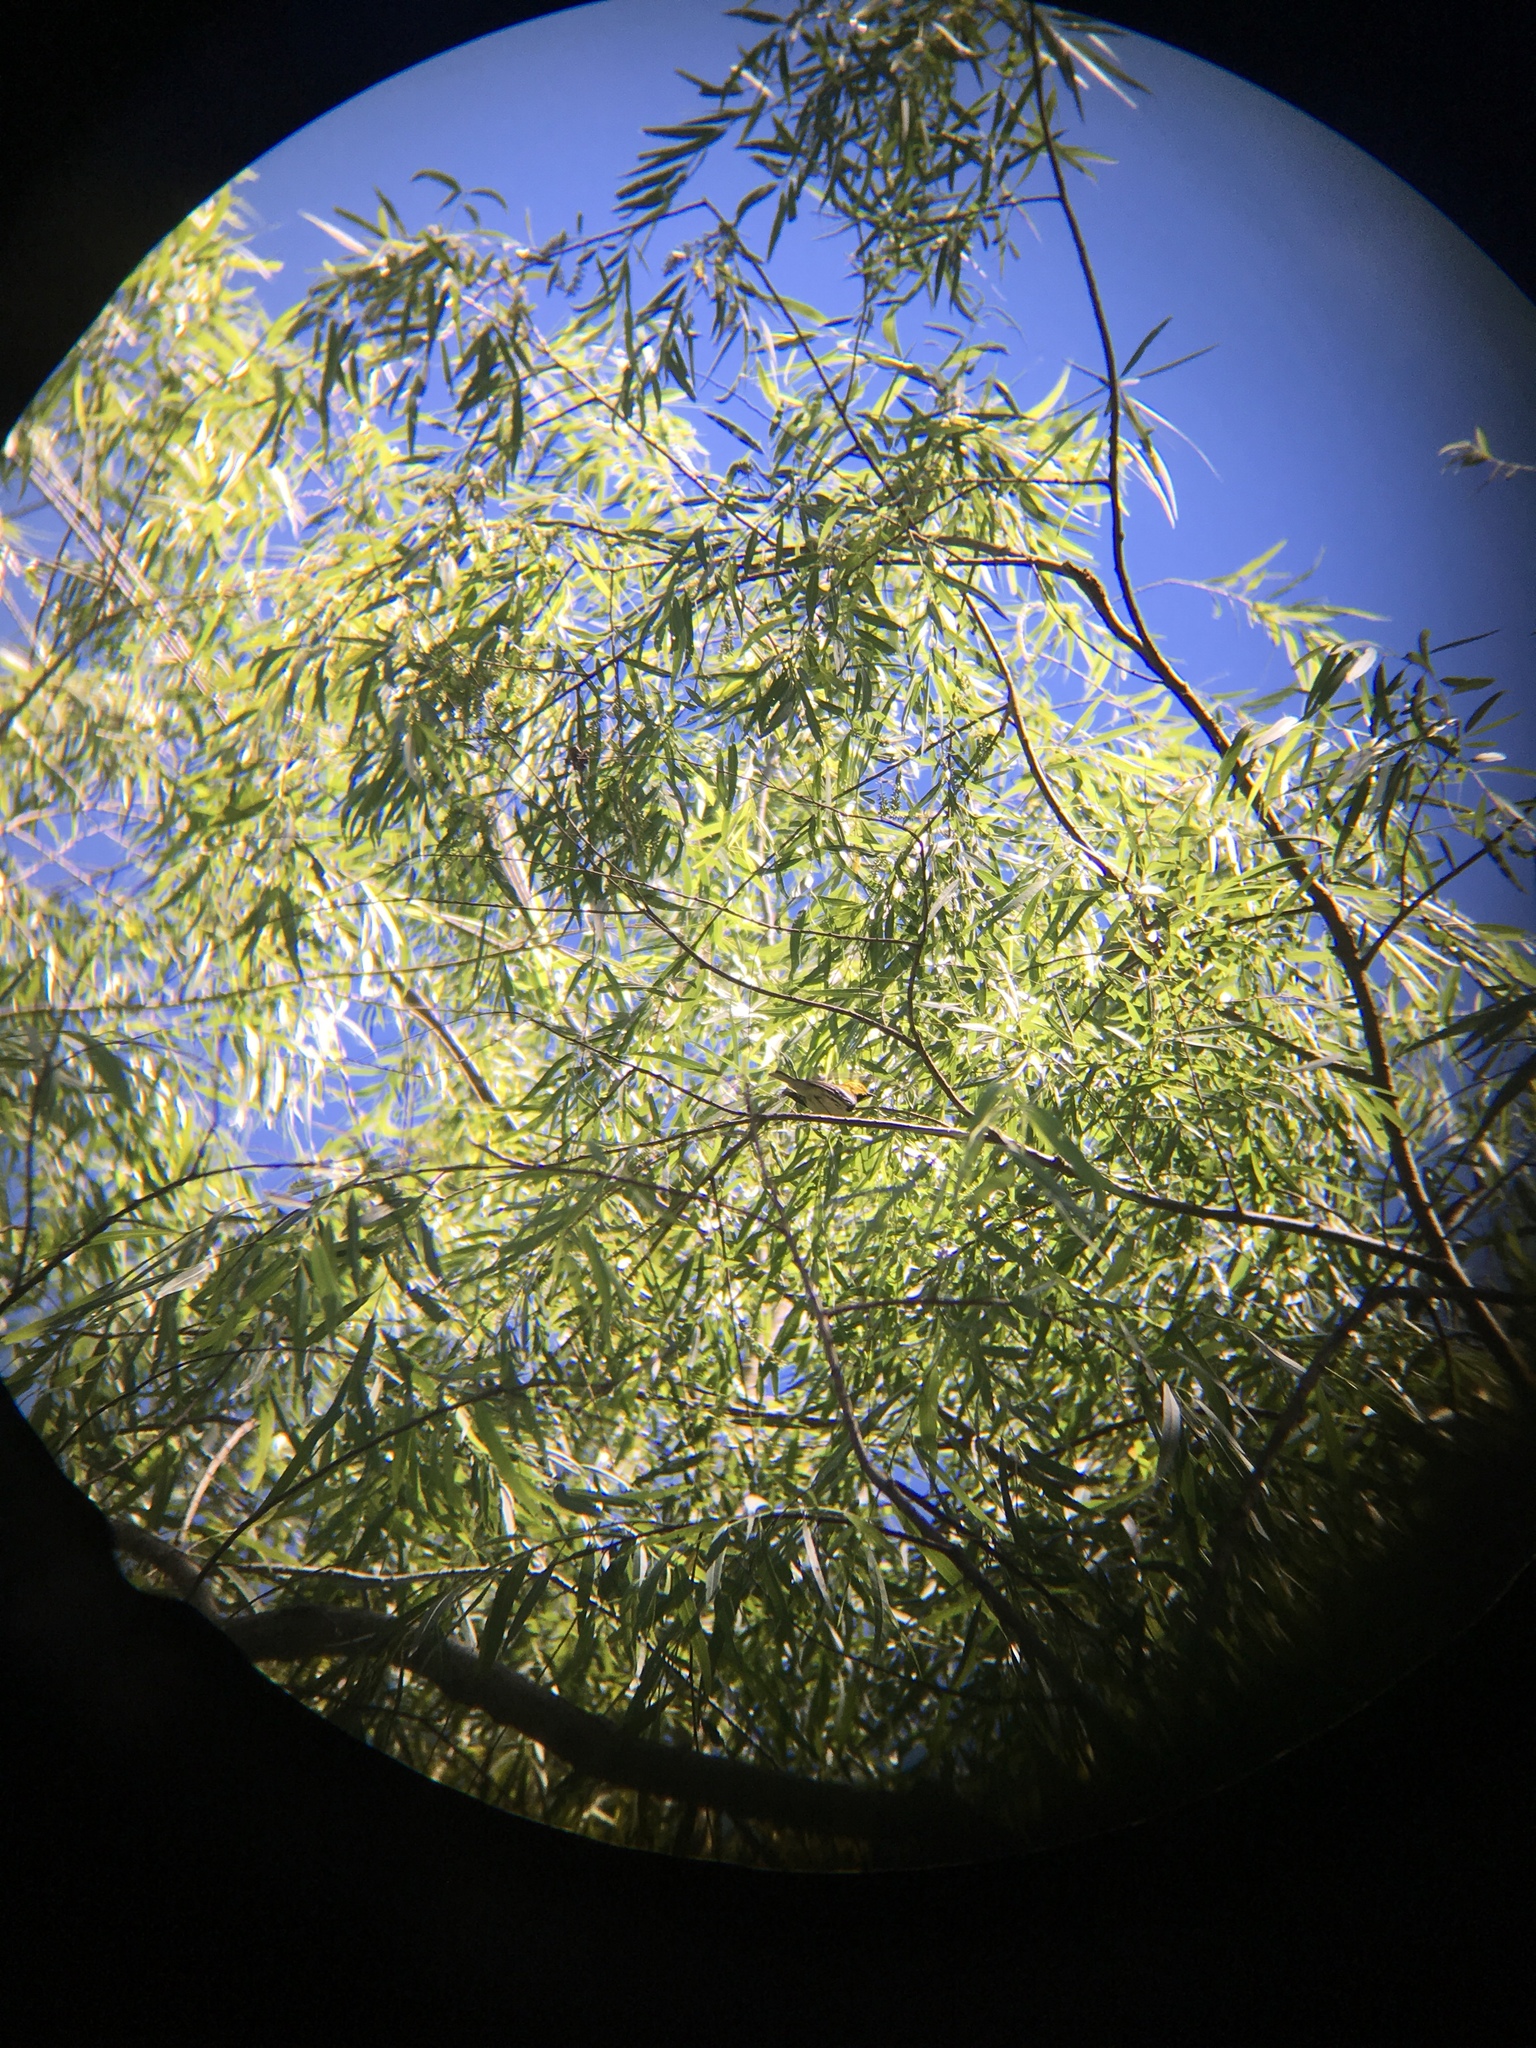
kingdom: Animalia
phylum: Chordata
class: Aves
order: Passeriformes
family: Parulidae
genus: Setophaga
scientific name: Setophaga virens
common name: Black-throated green warbler
